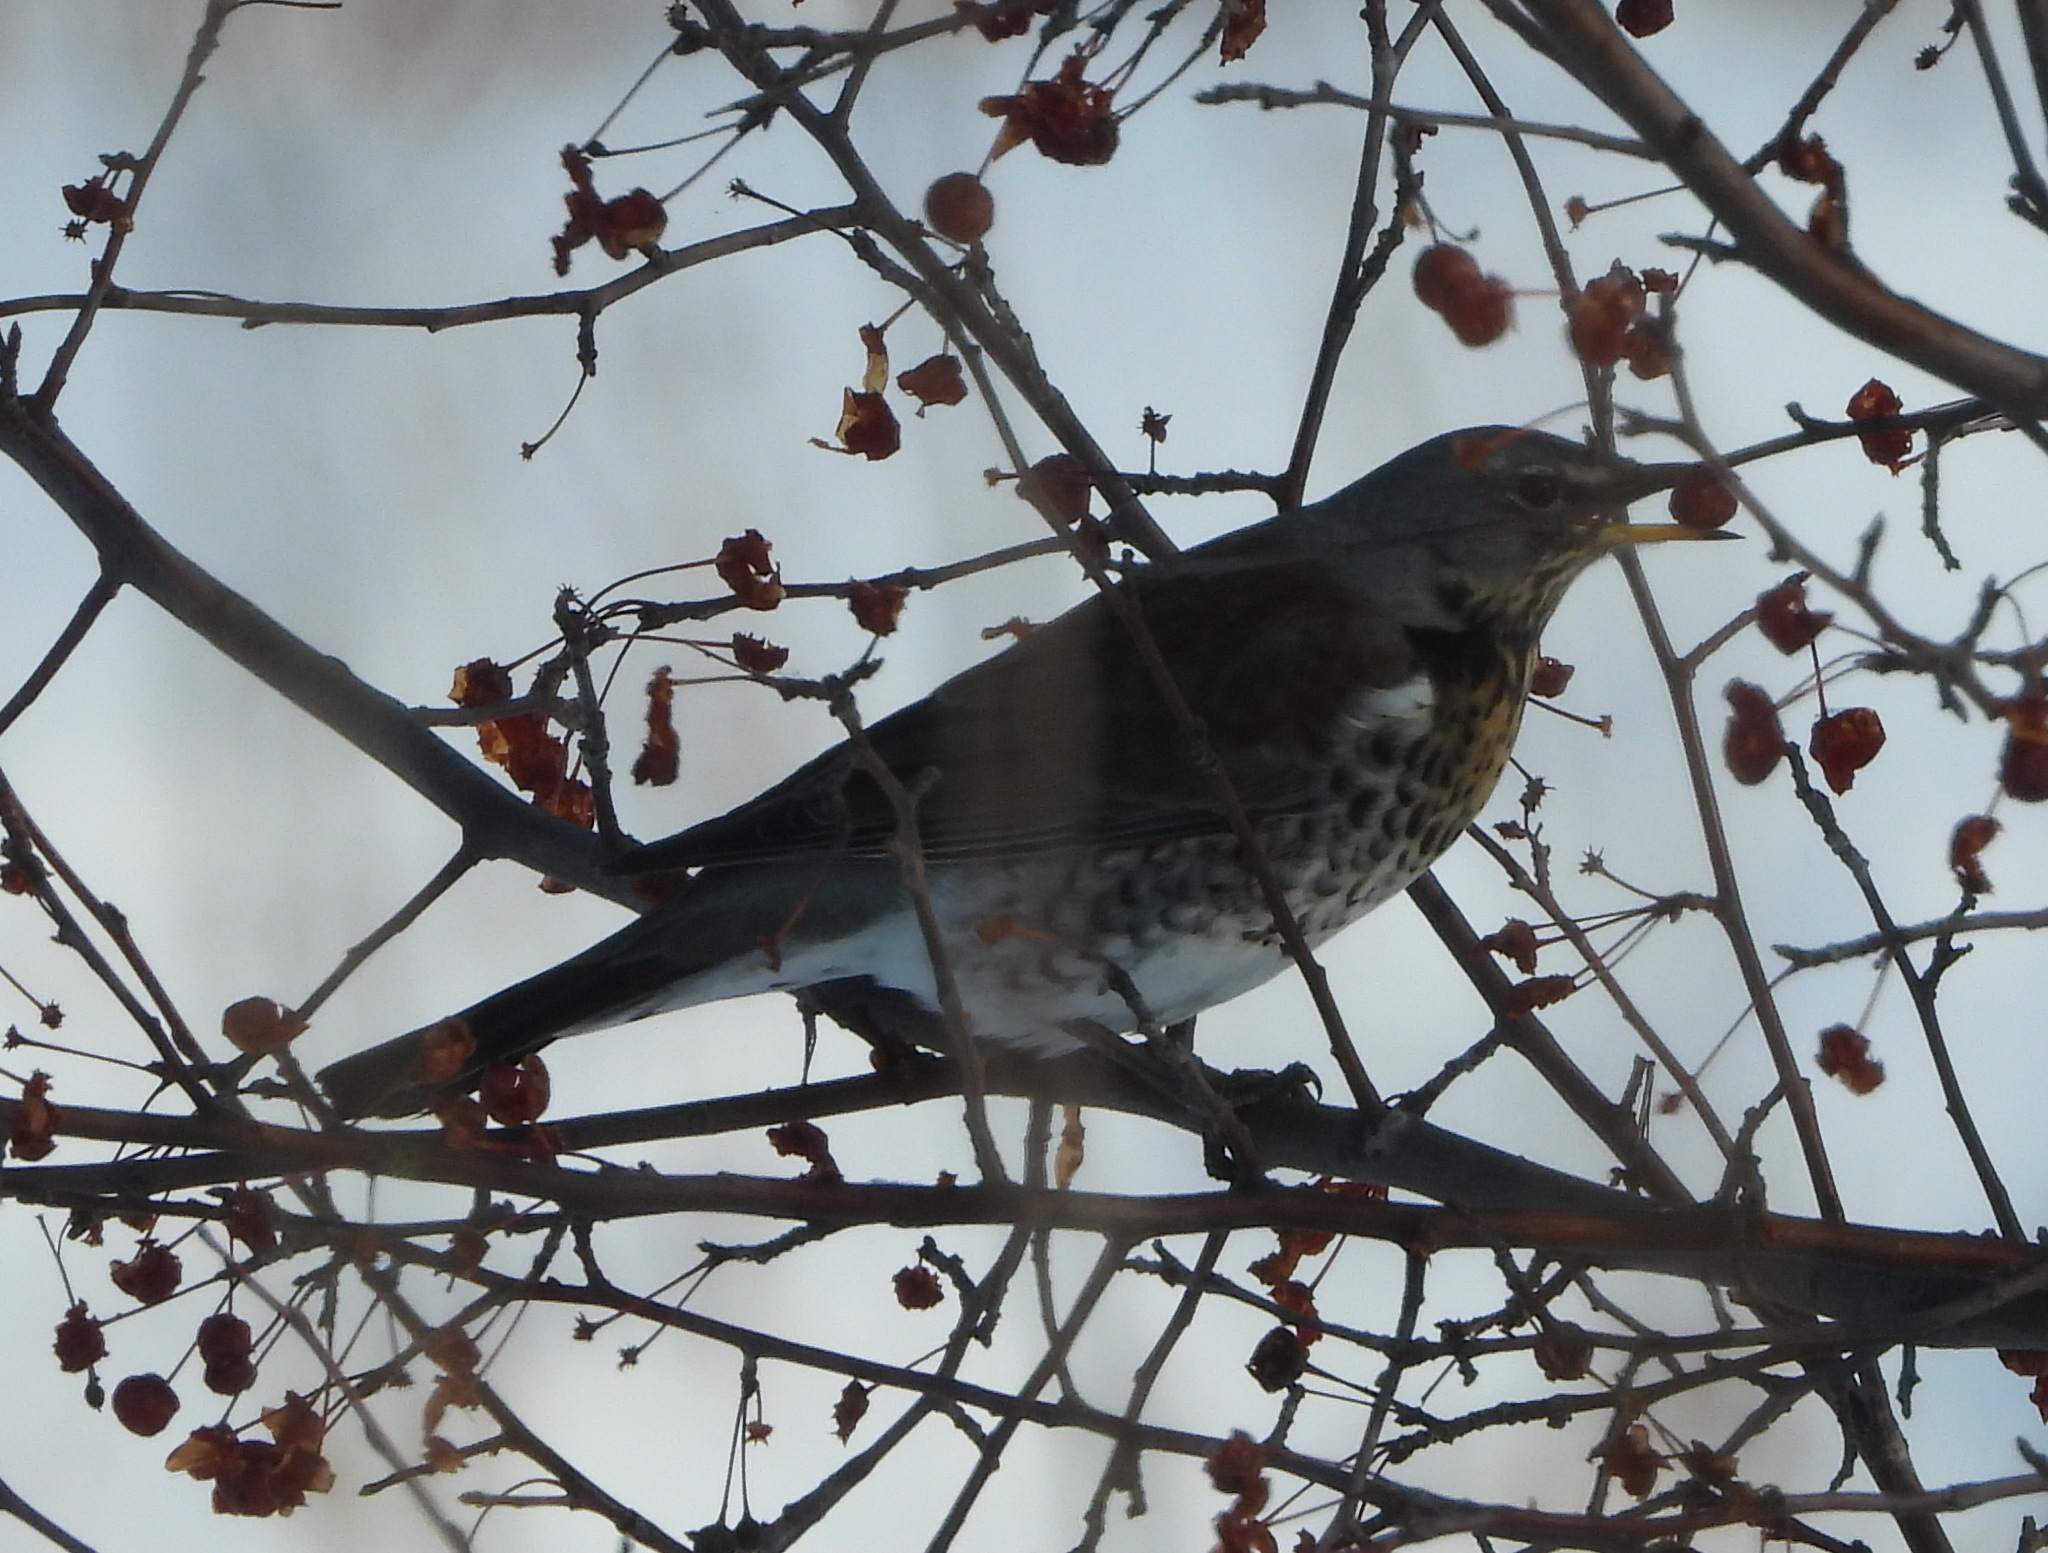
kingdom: Animalia
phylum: Chordata
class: Aves
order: Passeriformes
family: Turdidae
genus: Turdus
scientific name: Turdus pilaris
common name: Fieldfare
